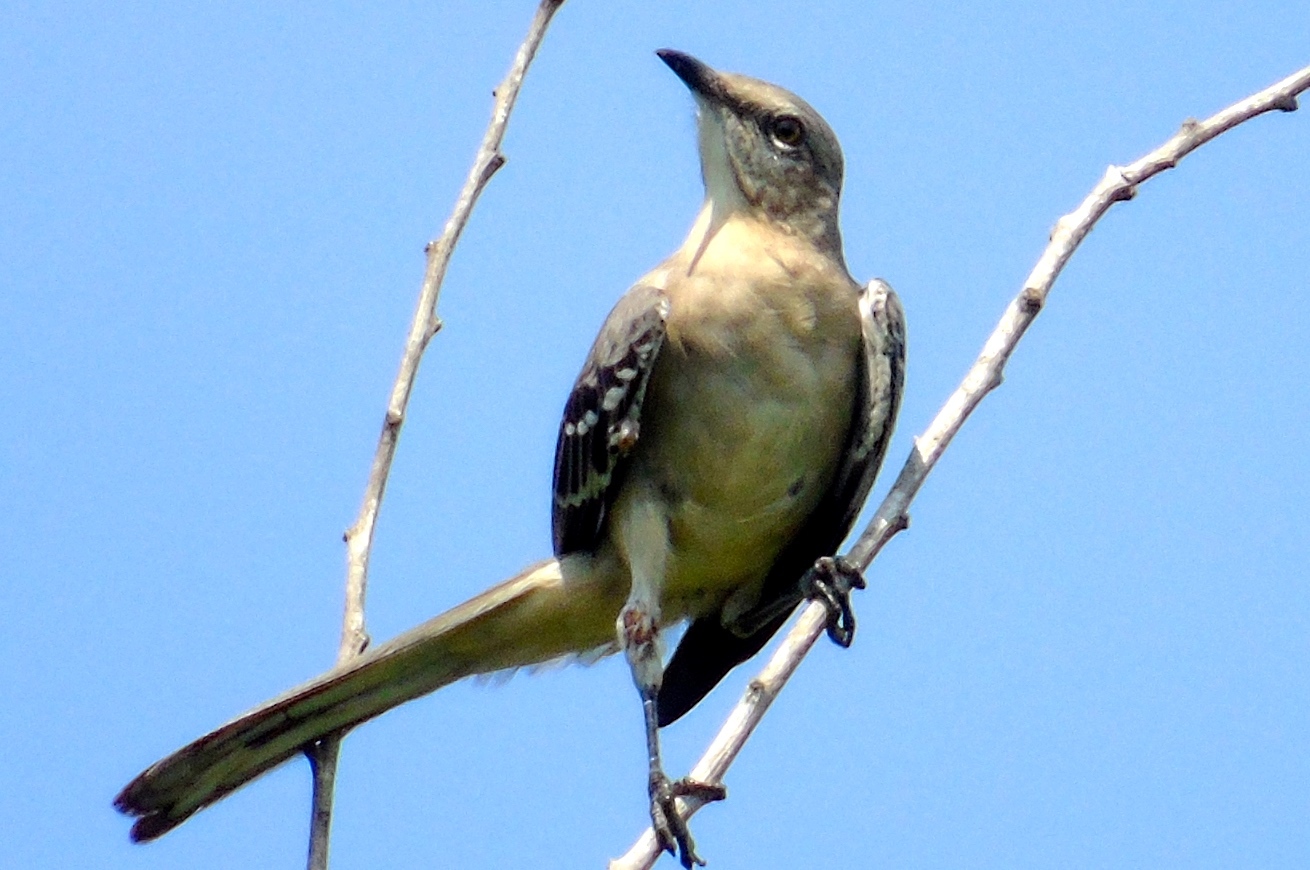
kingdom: Animalia
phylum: Chordata
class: Aves
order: Passeriformes
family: Mimidae
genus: Mimus
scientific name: Mimus polyglottos
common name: Northern mockingbird
